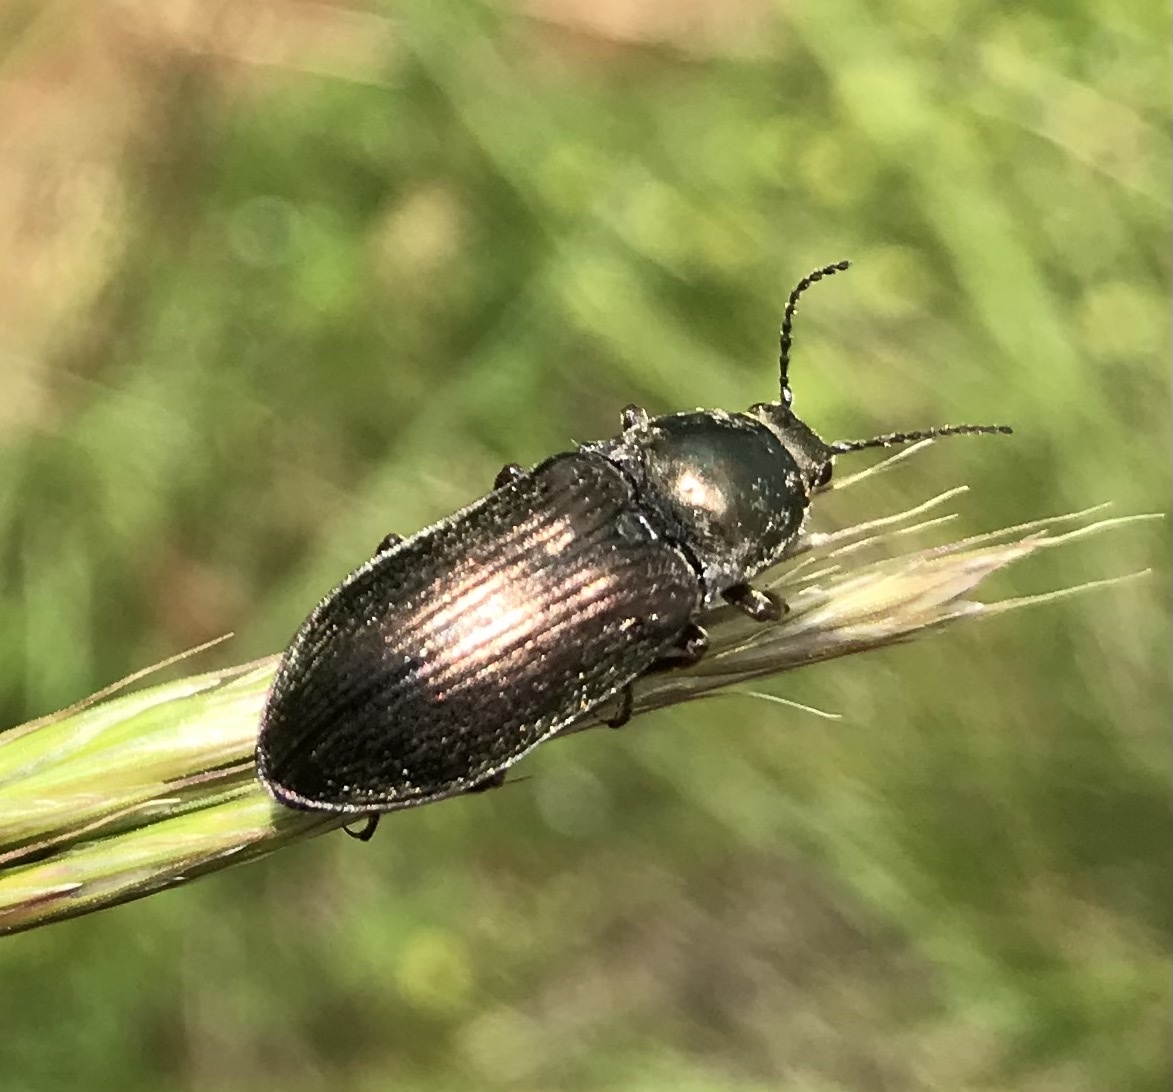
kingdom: Animalia
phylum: Arthropoda
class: Insecta
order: Coleoptera
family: Elateridae
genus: Selatosomus
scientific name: Selatosomus latus
